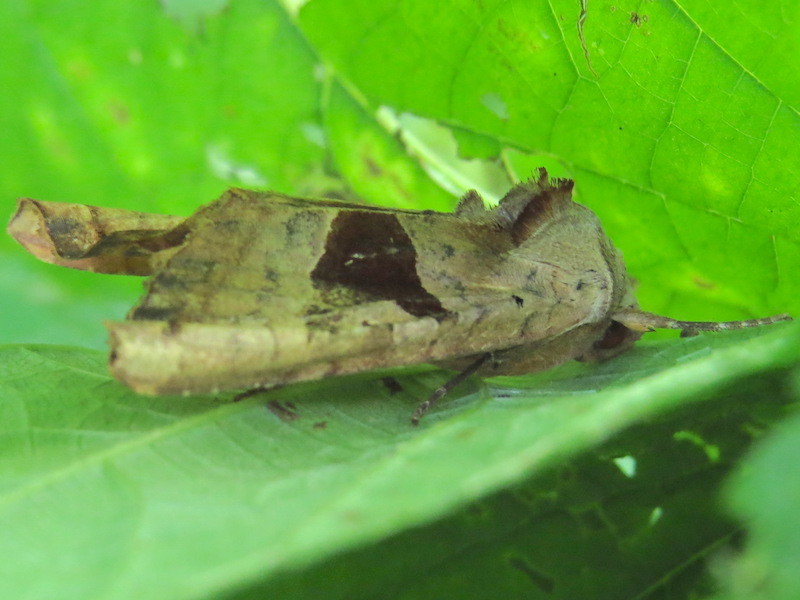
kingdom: Animalia
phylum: Arthropoda
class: Insecta
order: Lepidoptera
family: Noctuidae
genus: Phlogophora
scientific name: Phlogophora periculosa
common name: Brown angle shades
